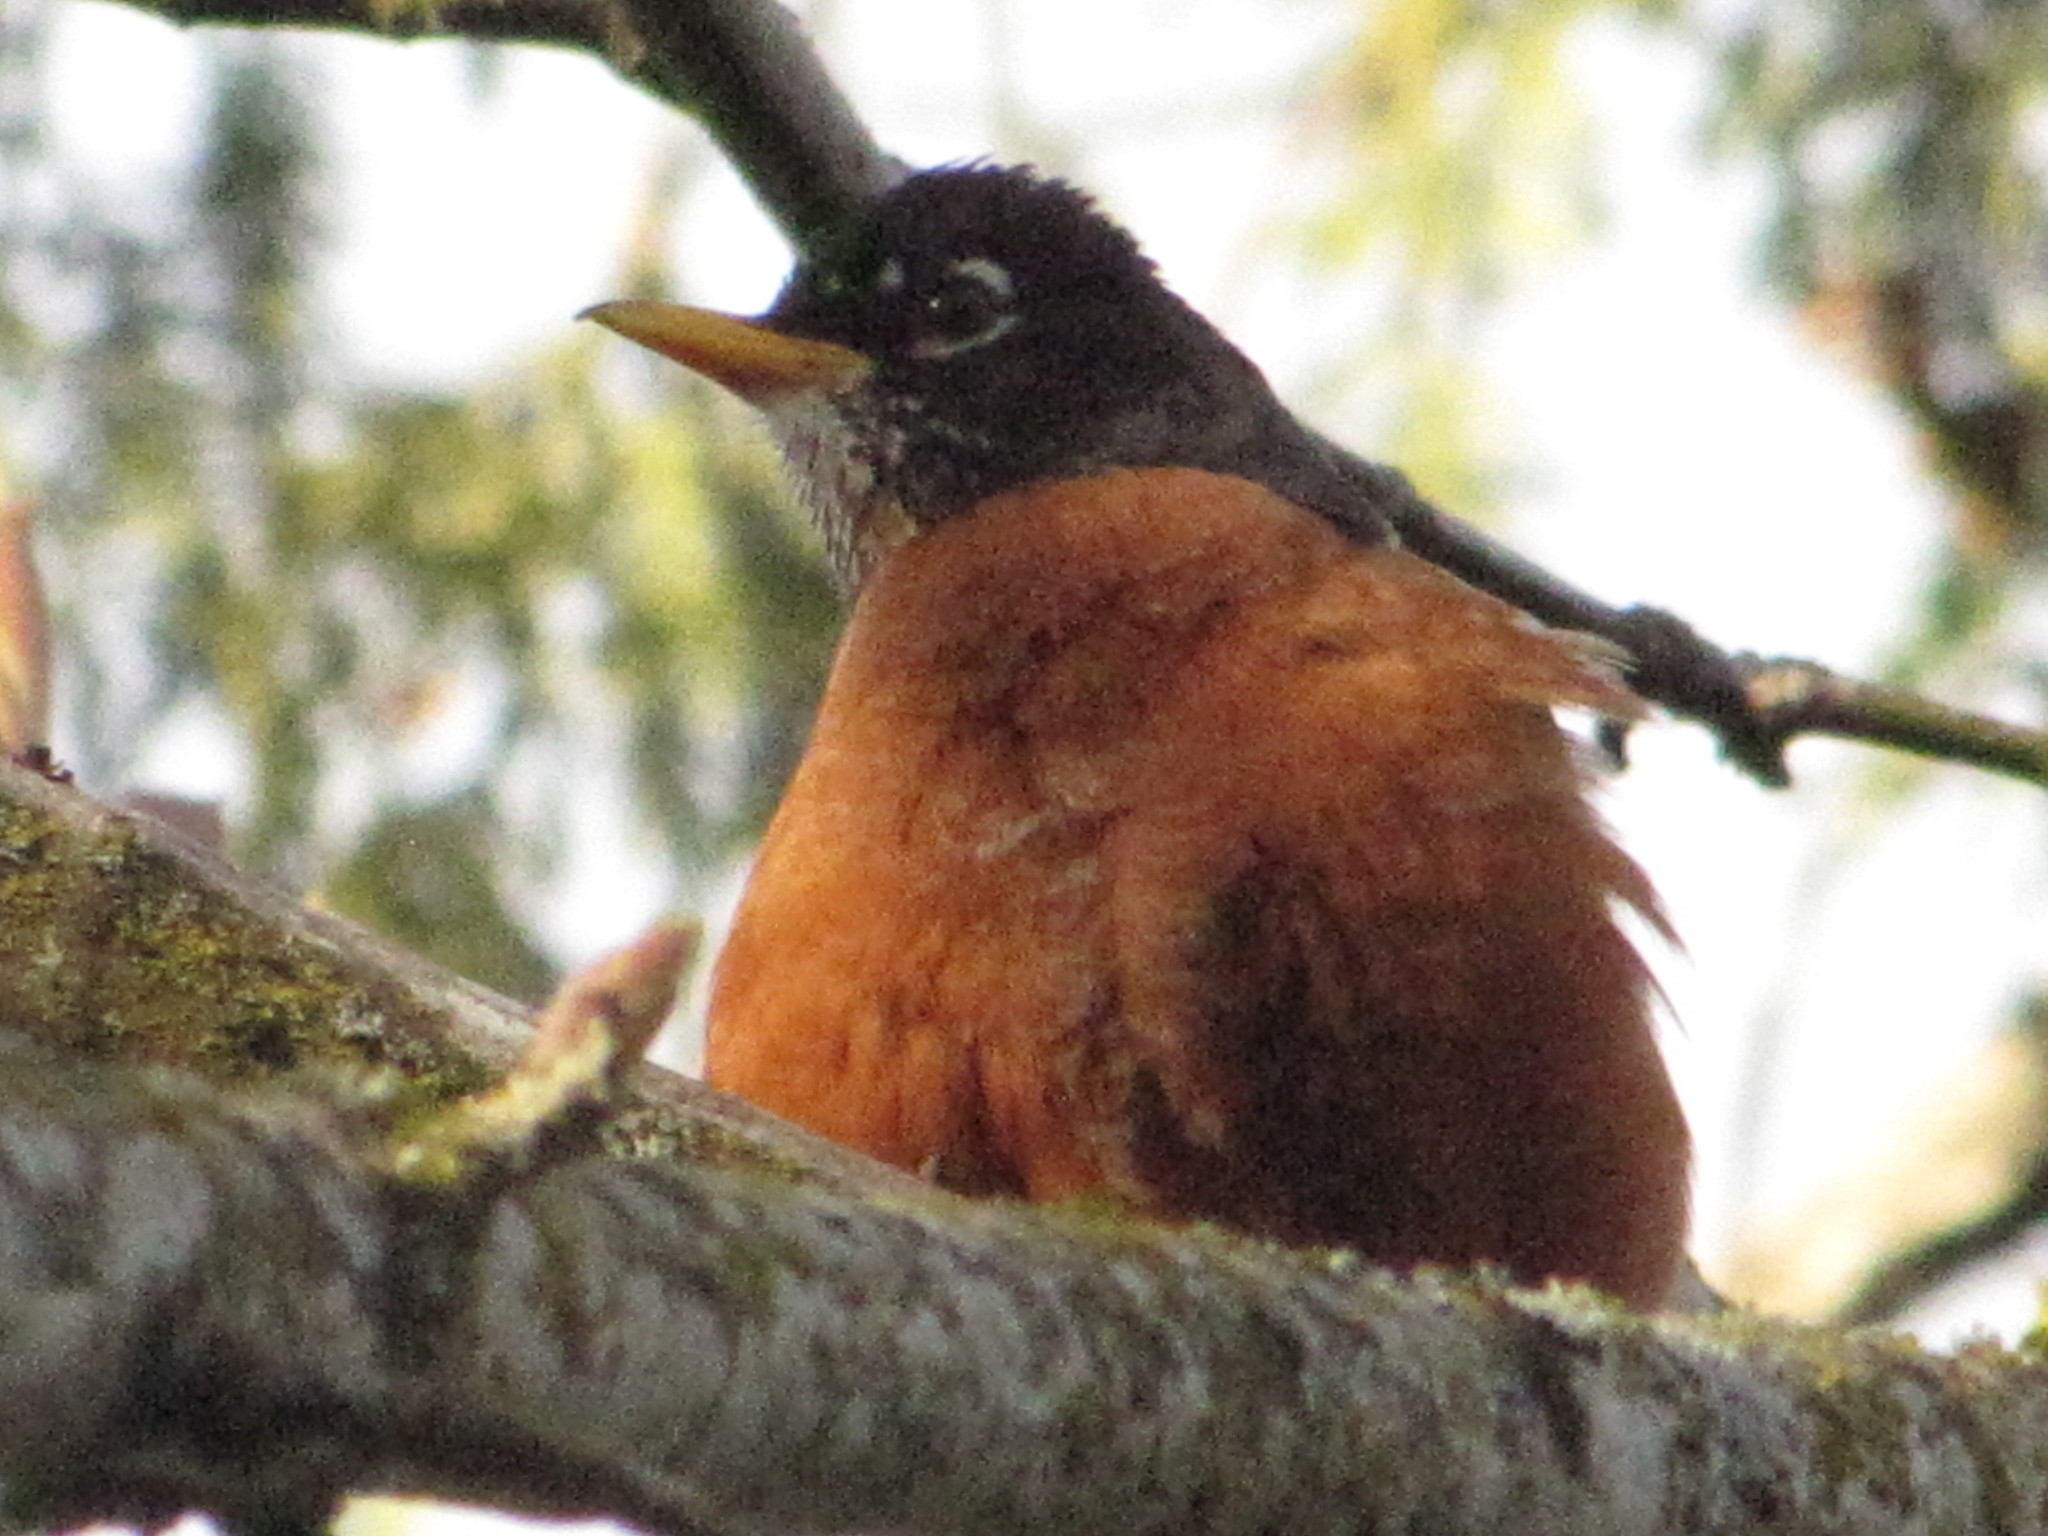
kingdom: Animalia
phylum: Chordata
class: Aves
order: Passeriformes
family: Turdidae
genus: Turdus
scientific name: Turdus migratorius
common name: American robin
